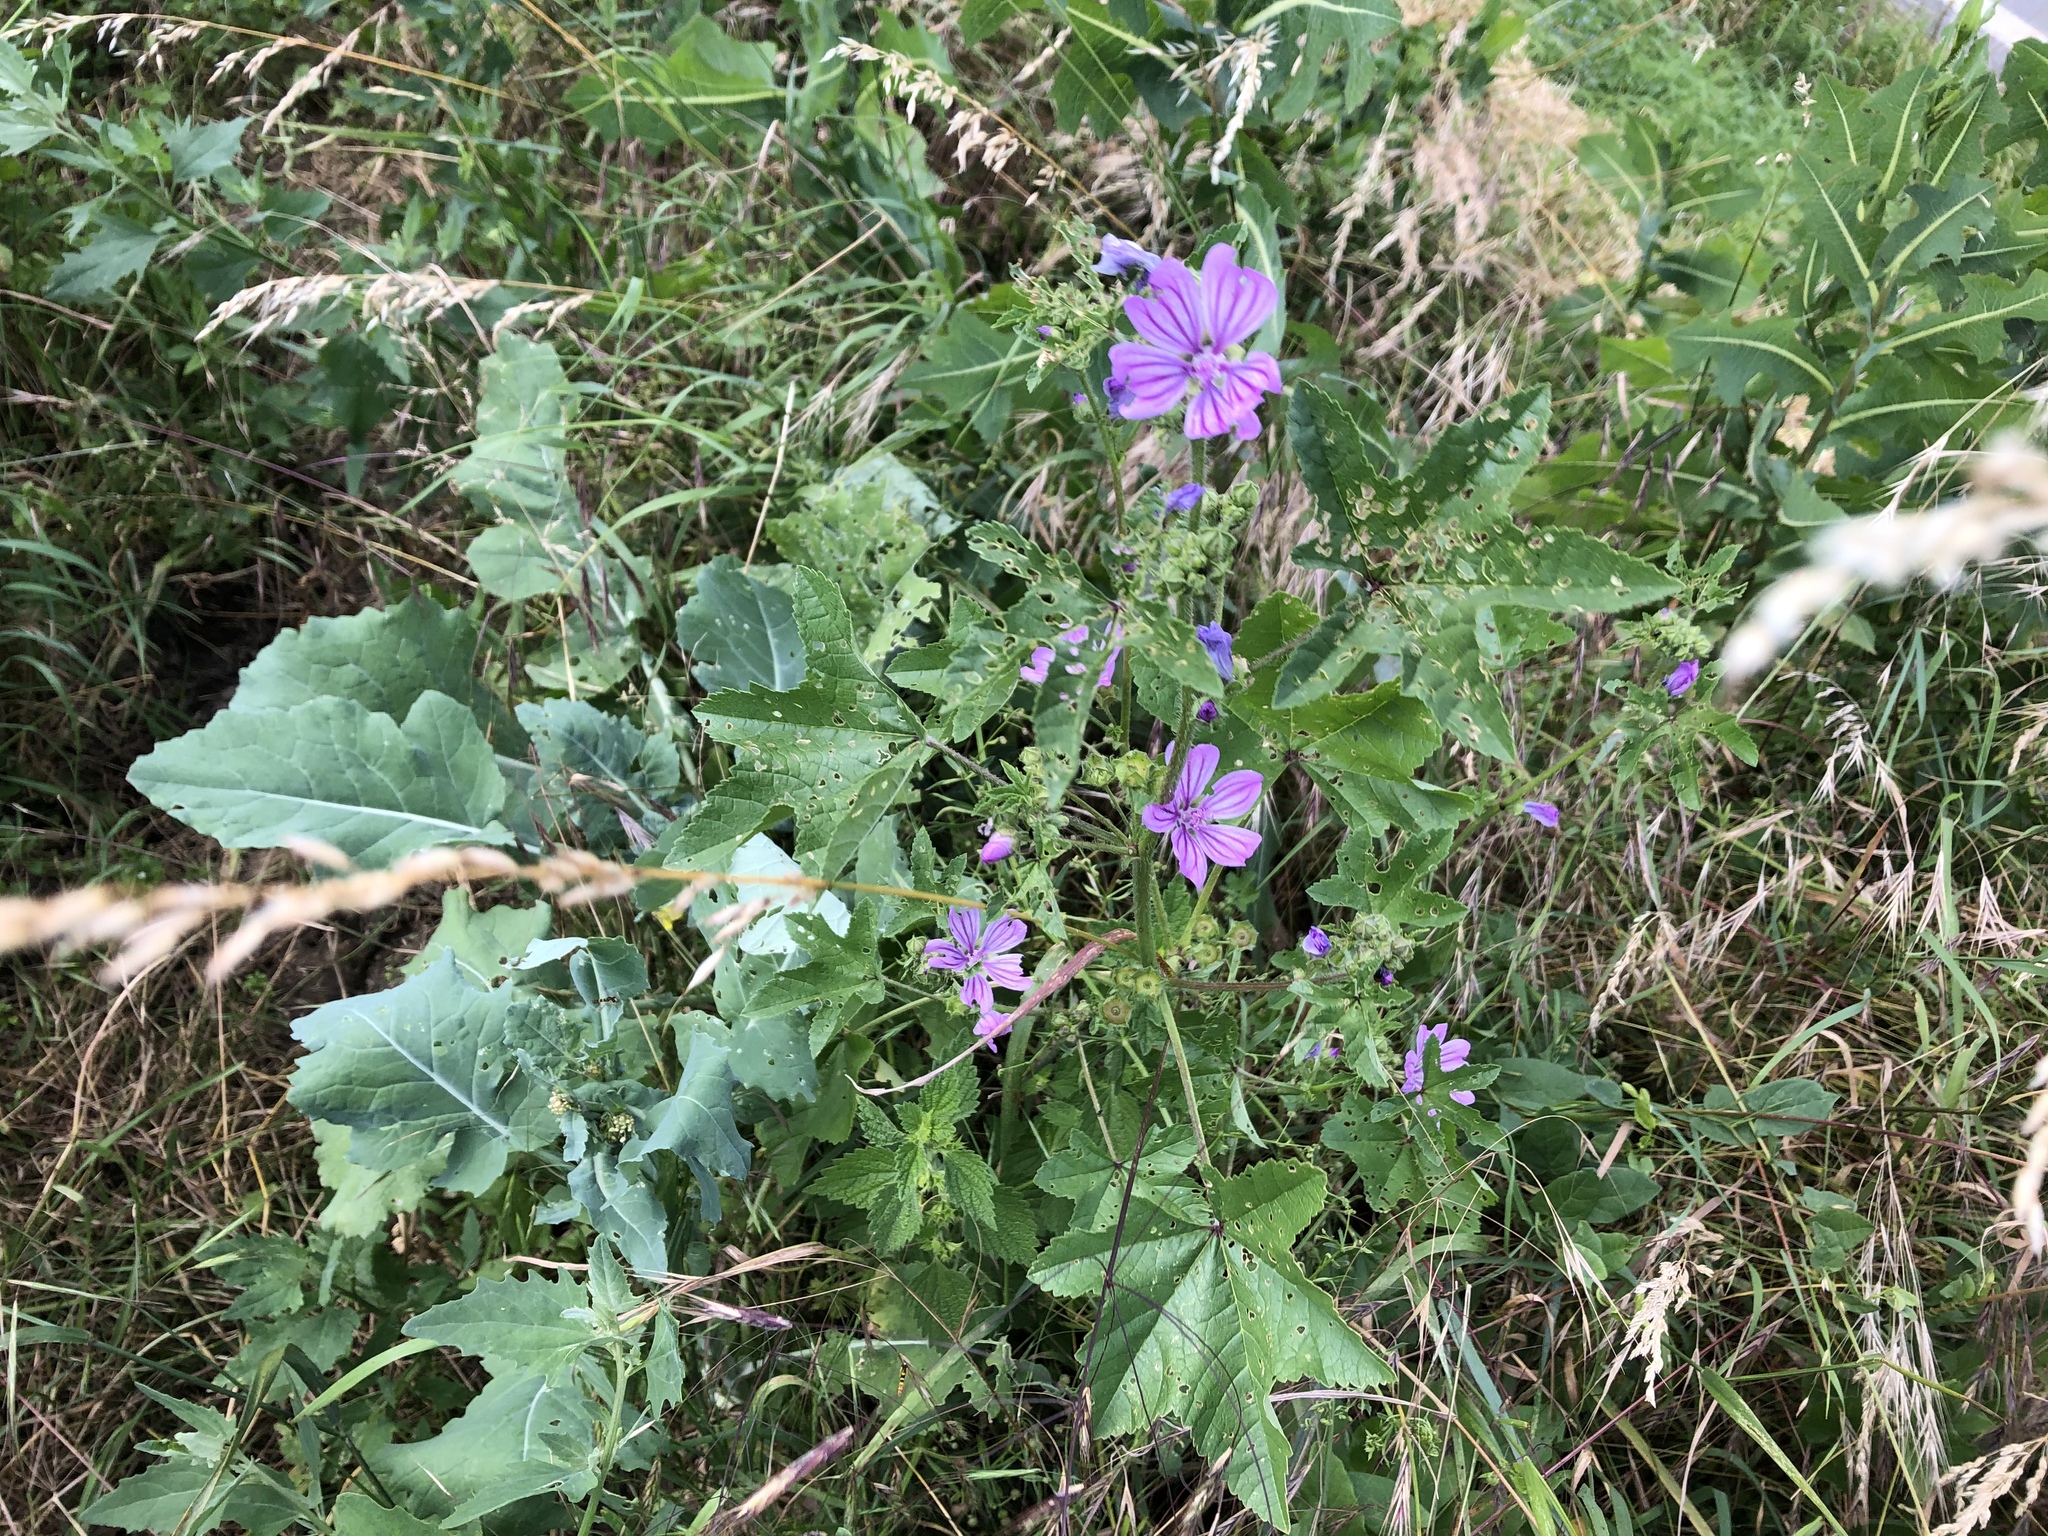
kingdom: Plantae
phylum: Tracheophyta
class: Magnoliopsida
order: Malvales
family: Malvaceae
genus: Malva
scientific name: Malva sylvestris
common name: Common mallow
